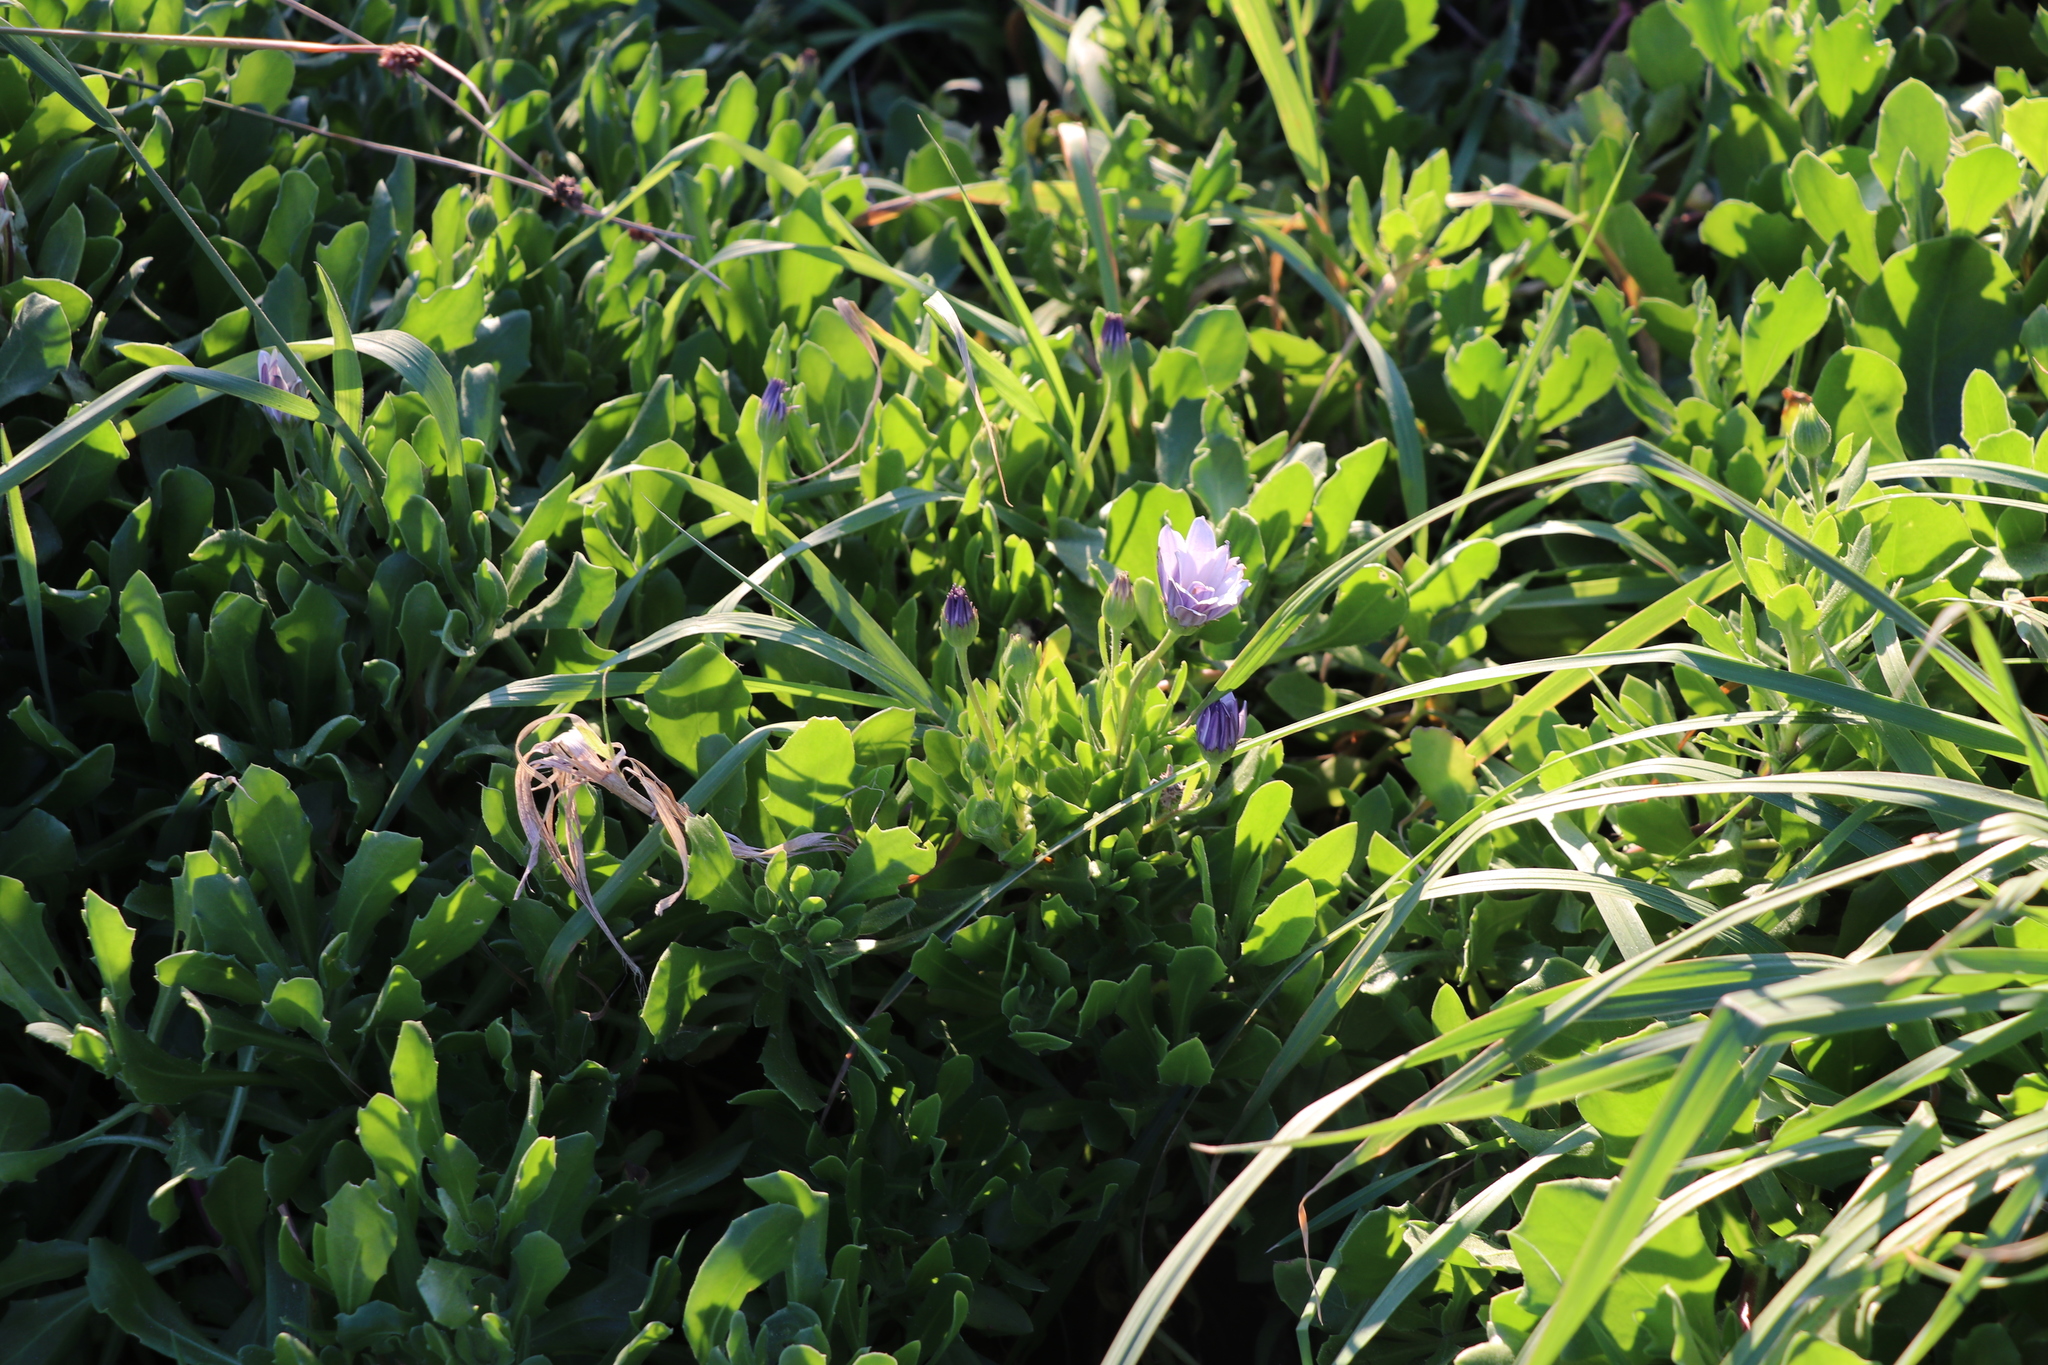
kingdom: Plantae
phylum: Tracheophyta
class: Magnoliopsida
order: Asterales
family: Asteraceae
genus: Dimorphotheca
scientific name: Dimorphotheca jucunda
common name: Osteospermum
